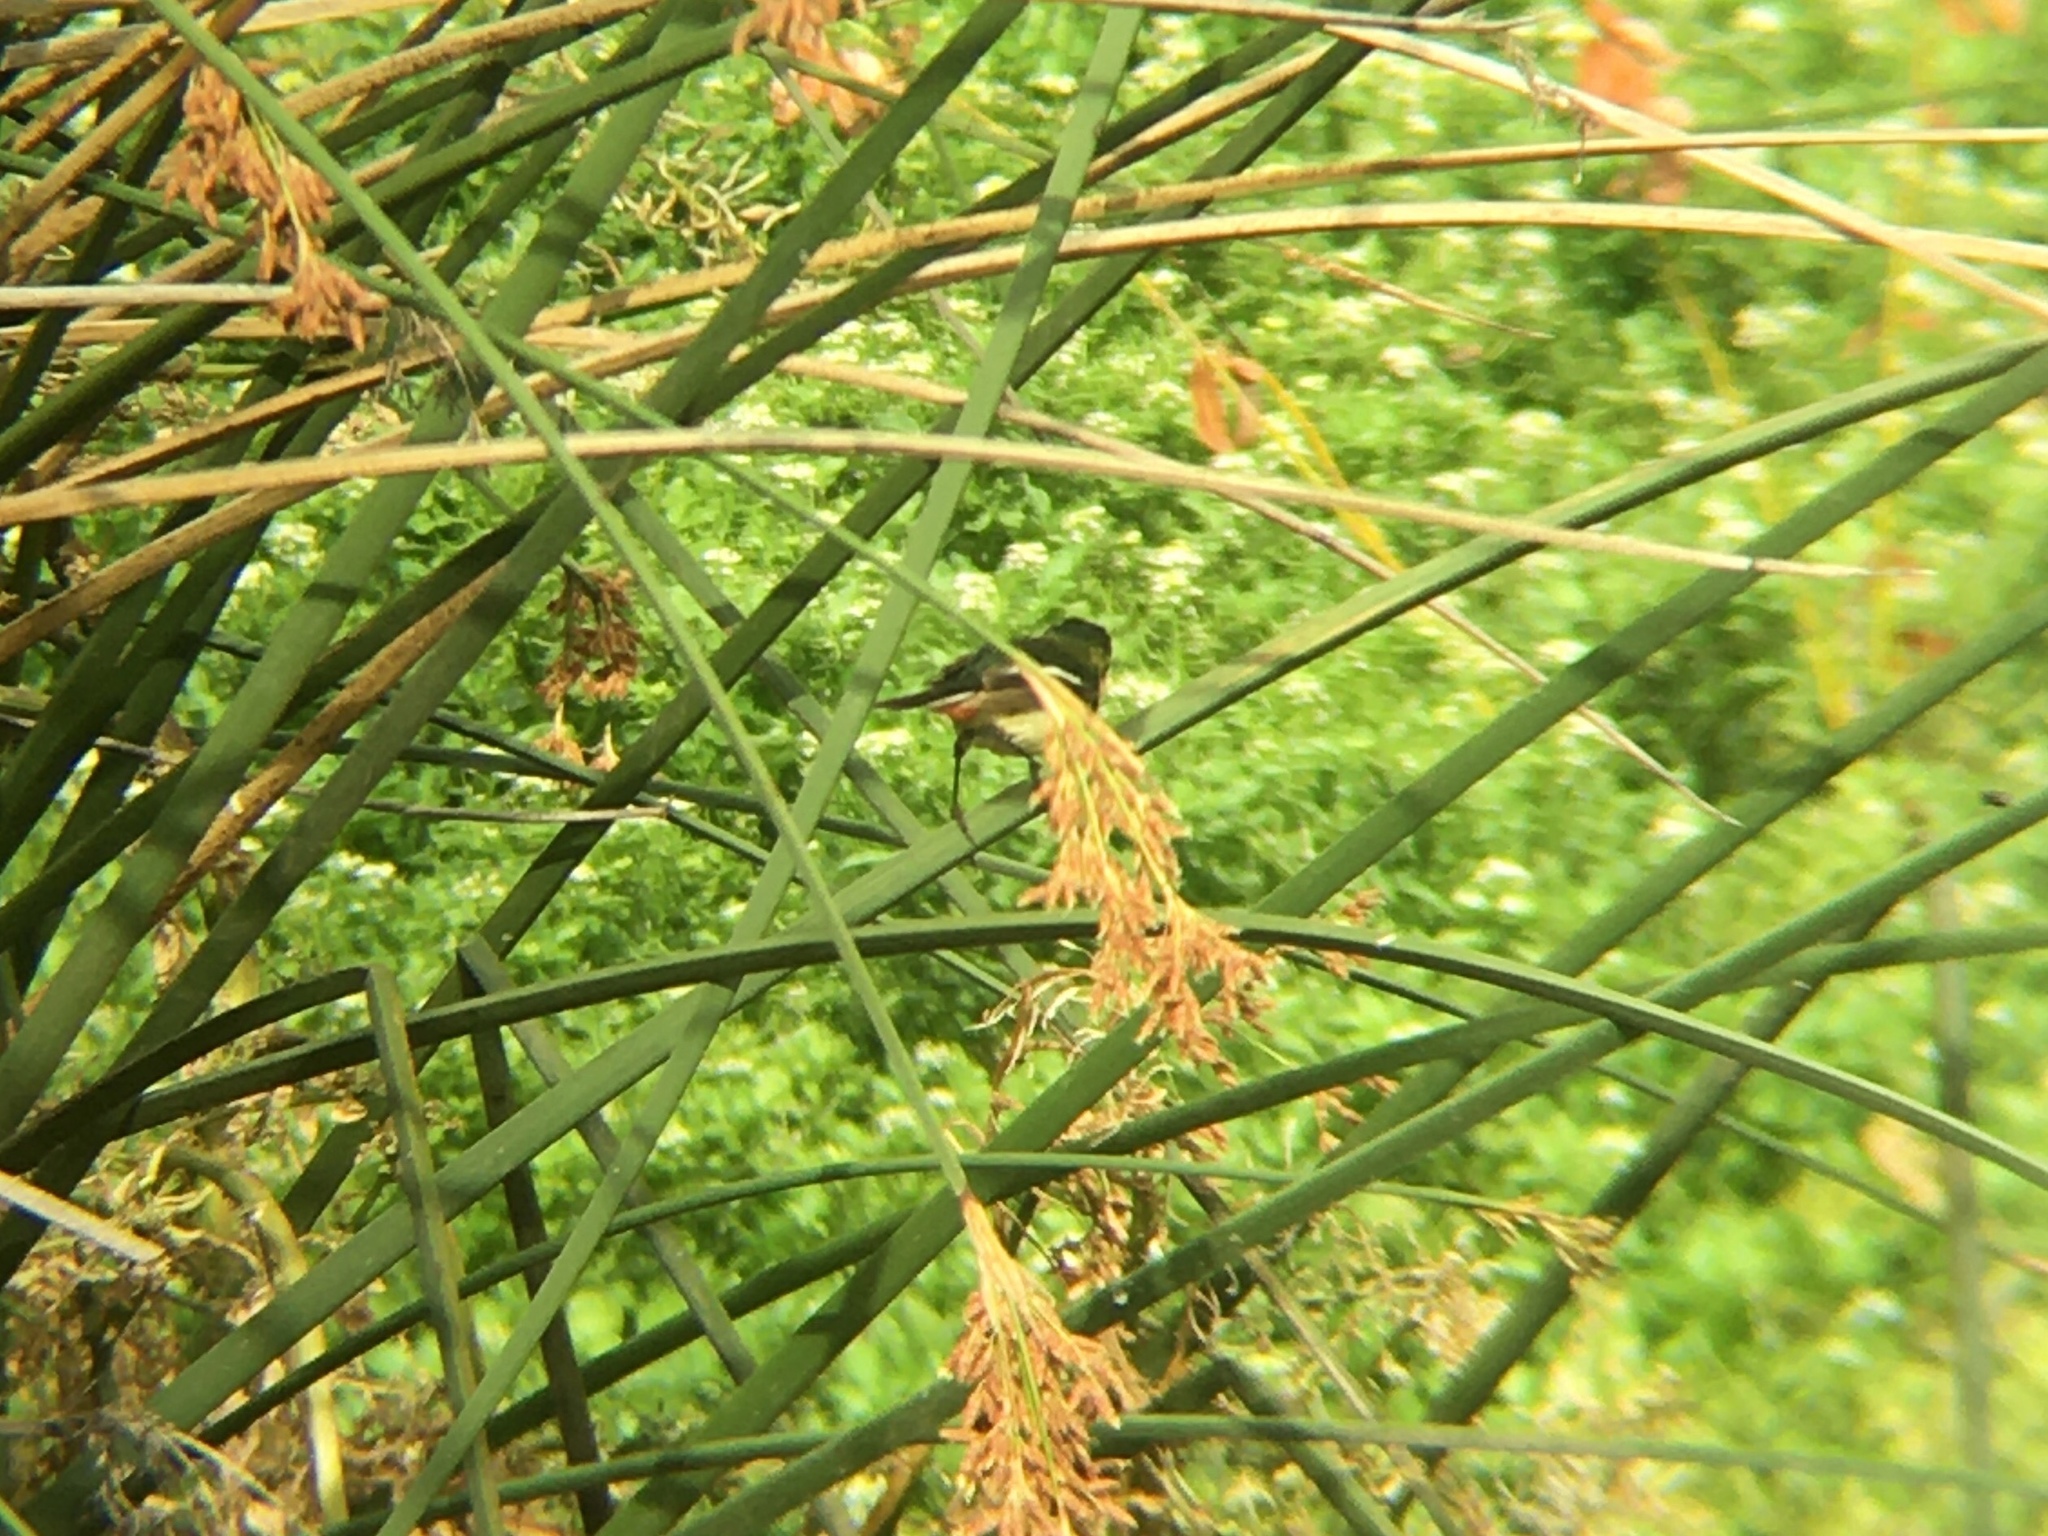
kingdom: Animalia
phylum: Chordata
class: Aves
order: Passeriformes
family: Tyrannidae
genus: Tachuris
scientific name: Tachuris rubrigastra
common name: Many-colored rush tyrant
